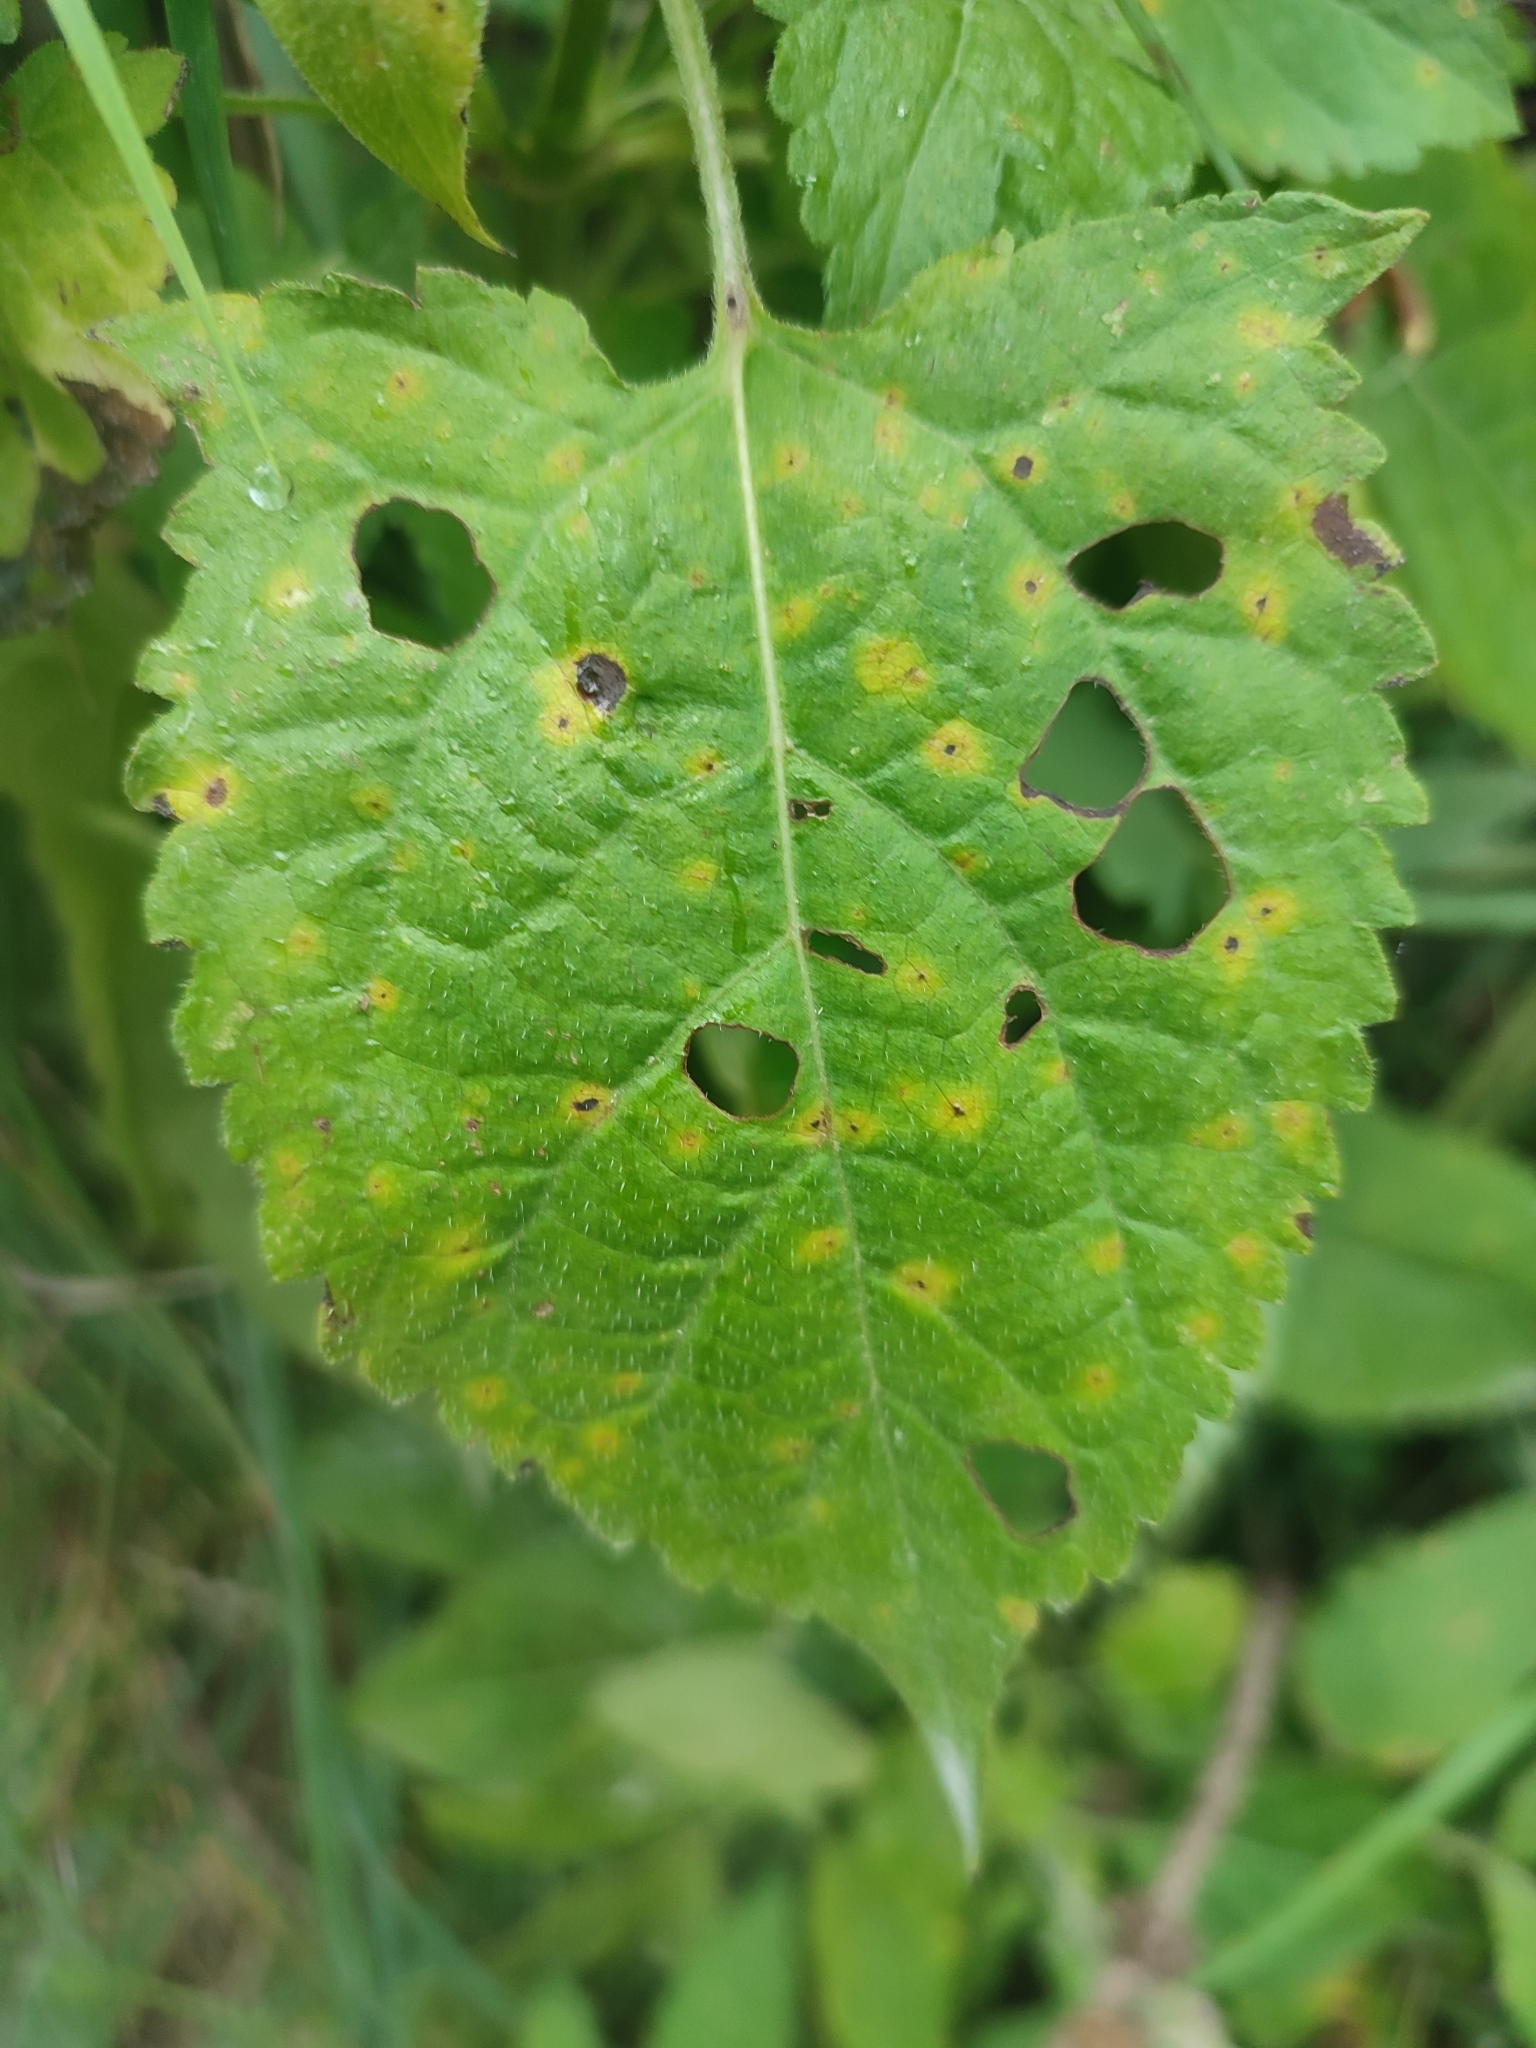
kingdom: Plantae
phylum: Tracheophyta
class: Magnoliopsida
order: Lamiales
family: Lamiaceae
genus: Salvia
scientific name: Salvia glutinosa
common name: Sticky clary
